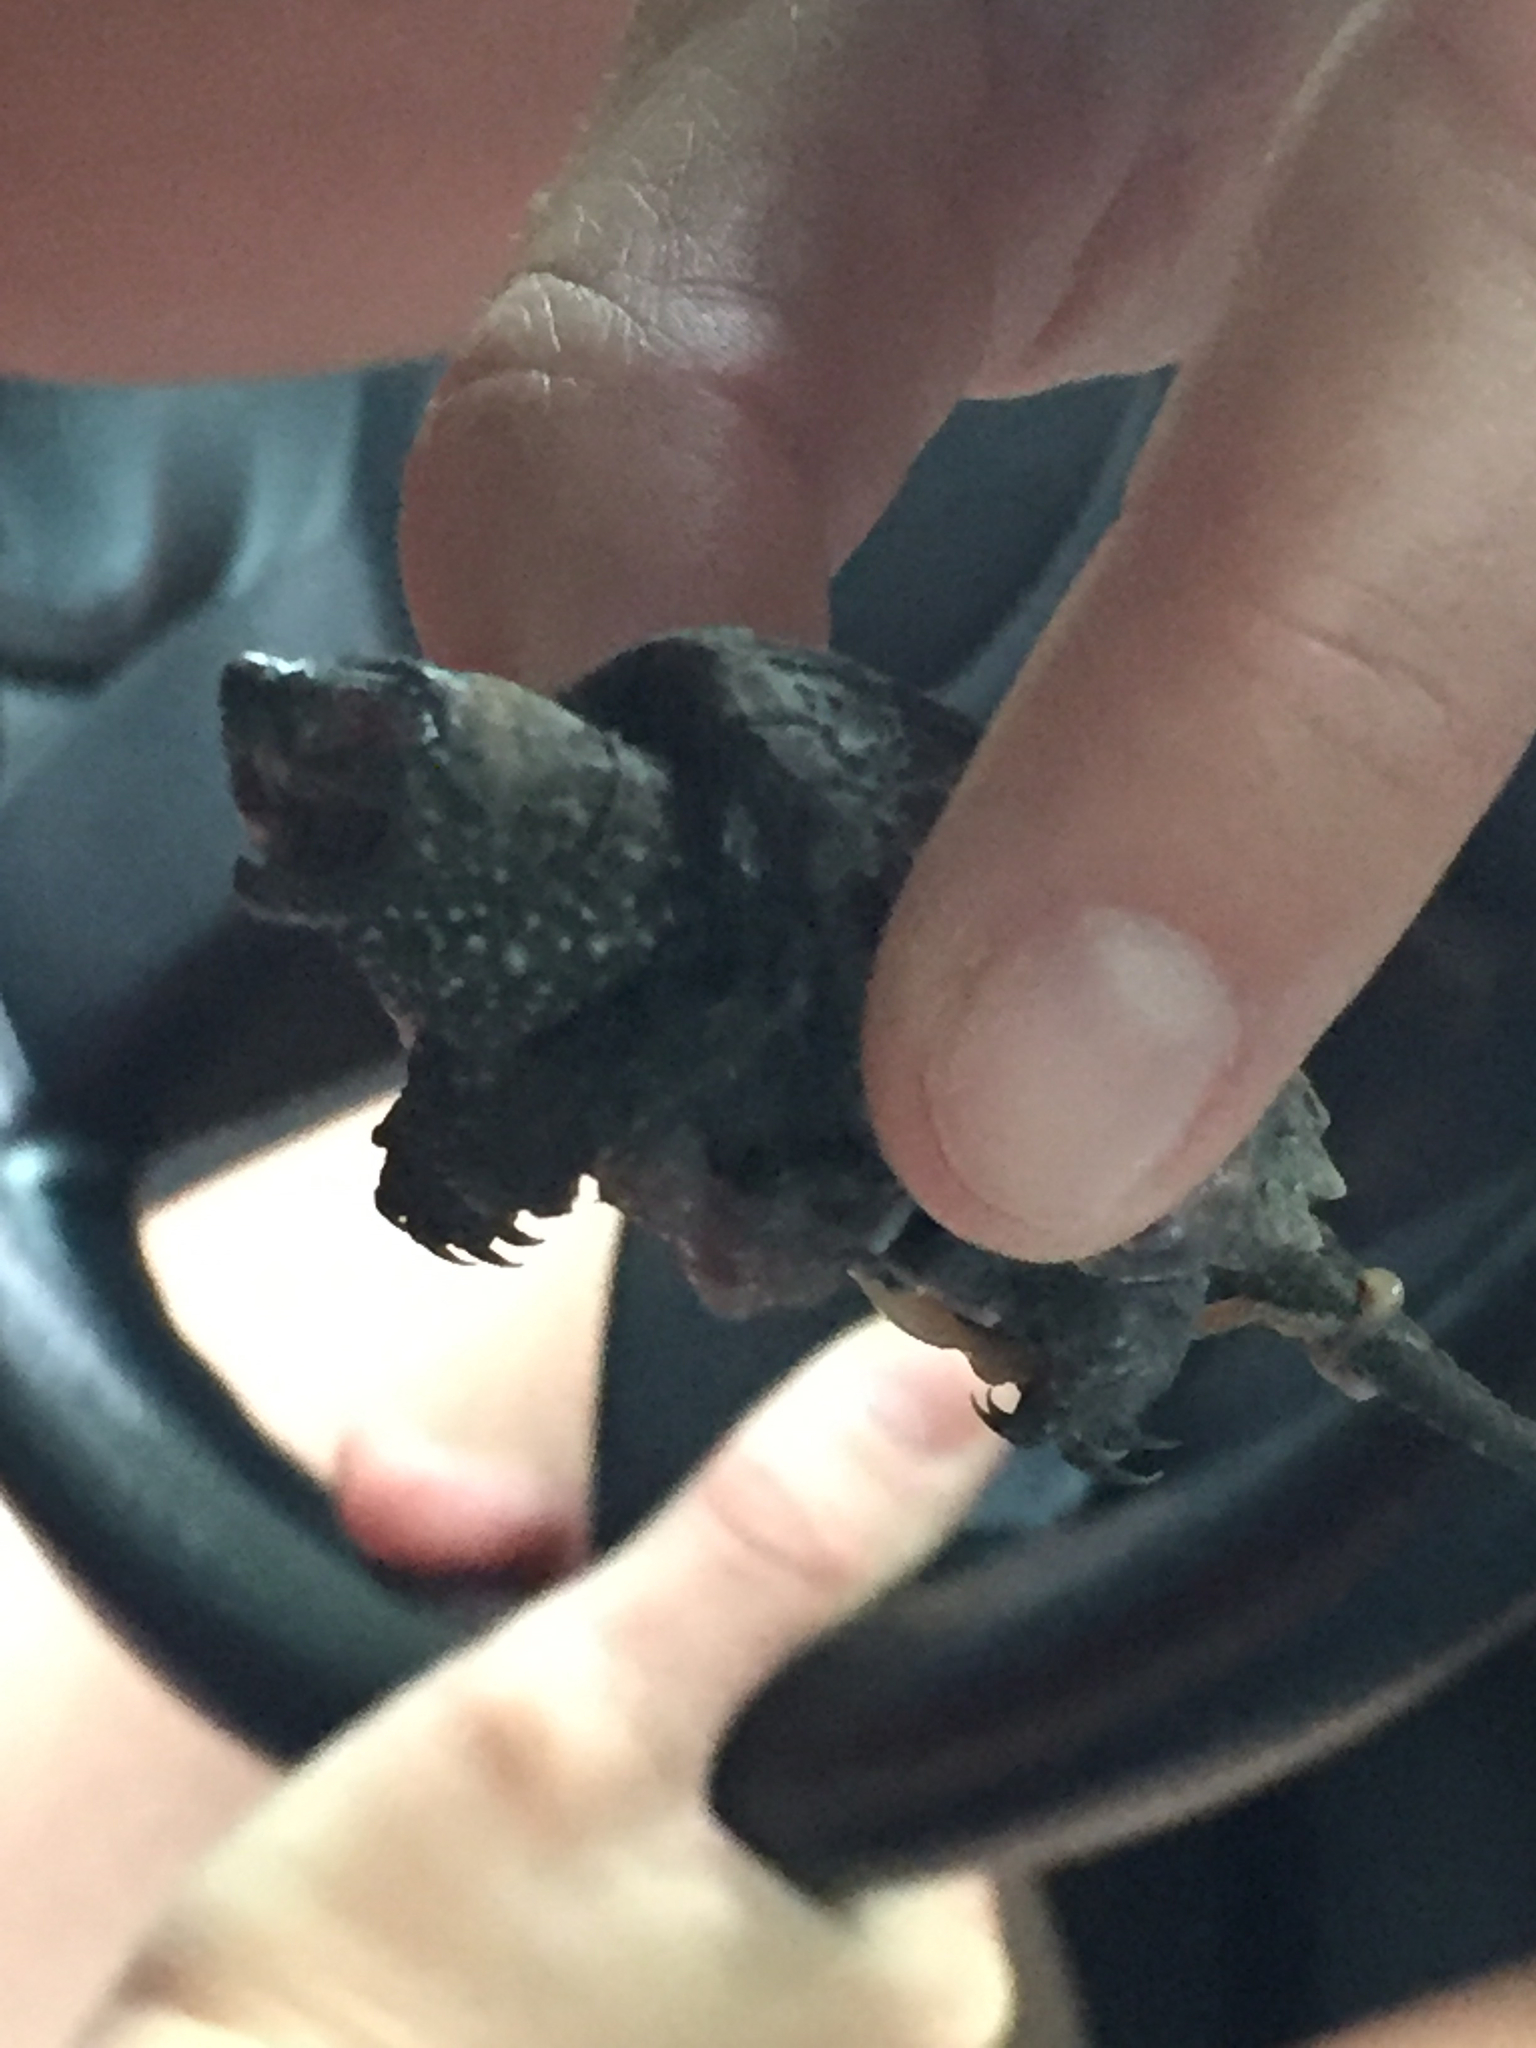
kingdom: Animalia
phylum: Chordata
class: Testudines
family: Chelydridae
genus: Chelydra
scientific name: Chelydra serpentina
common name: Common snapping turtle
